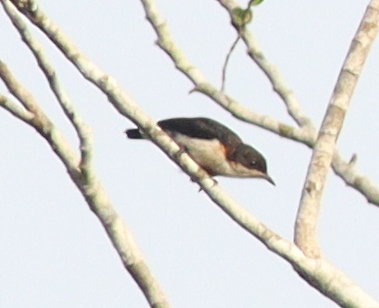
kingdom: Animalia
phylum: Chordata
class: Aves
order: Passeriformes
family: Hyliotidae
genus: Hyliota
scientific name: Hyliota violacea
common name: Violet-backed hyliota
